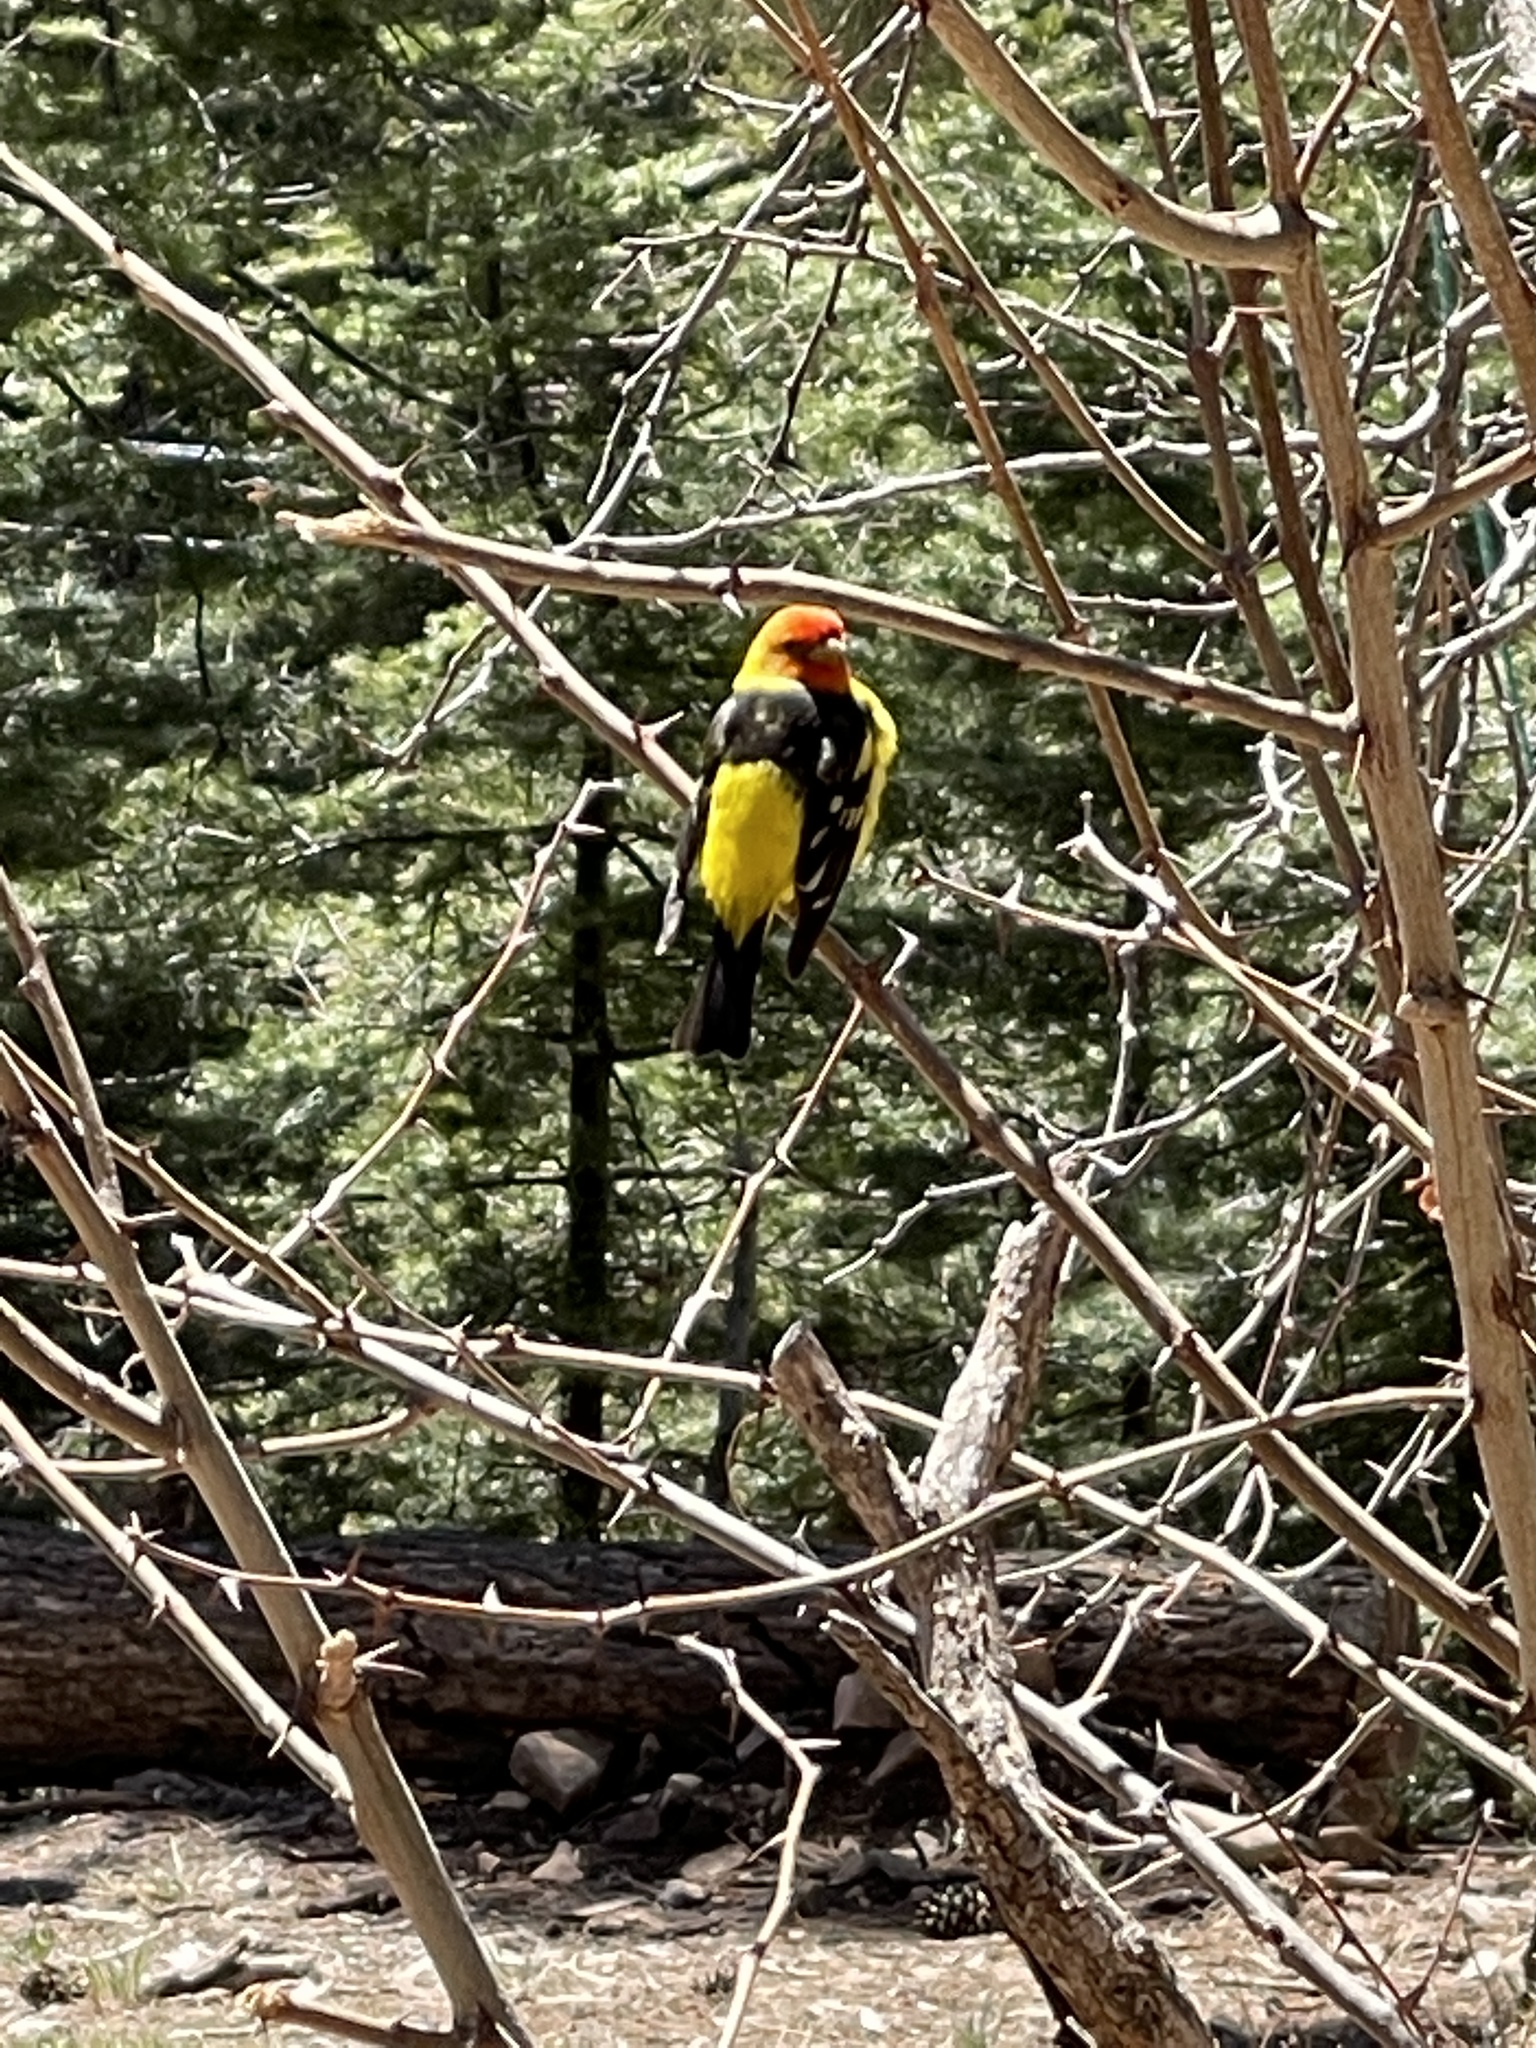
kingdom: Animalia
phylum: Chordata
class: Aves
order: Passeriformes
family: Cardinalidae
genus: Piranga
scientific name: Piranga ludoviciana
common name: Western tanager
